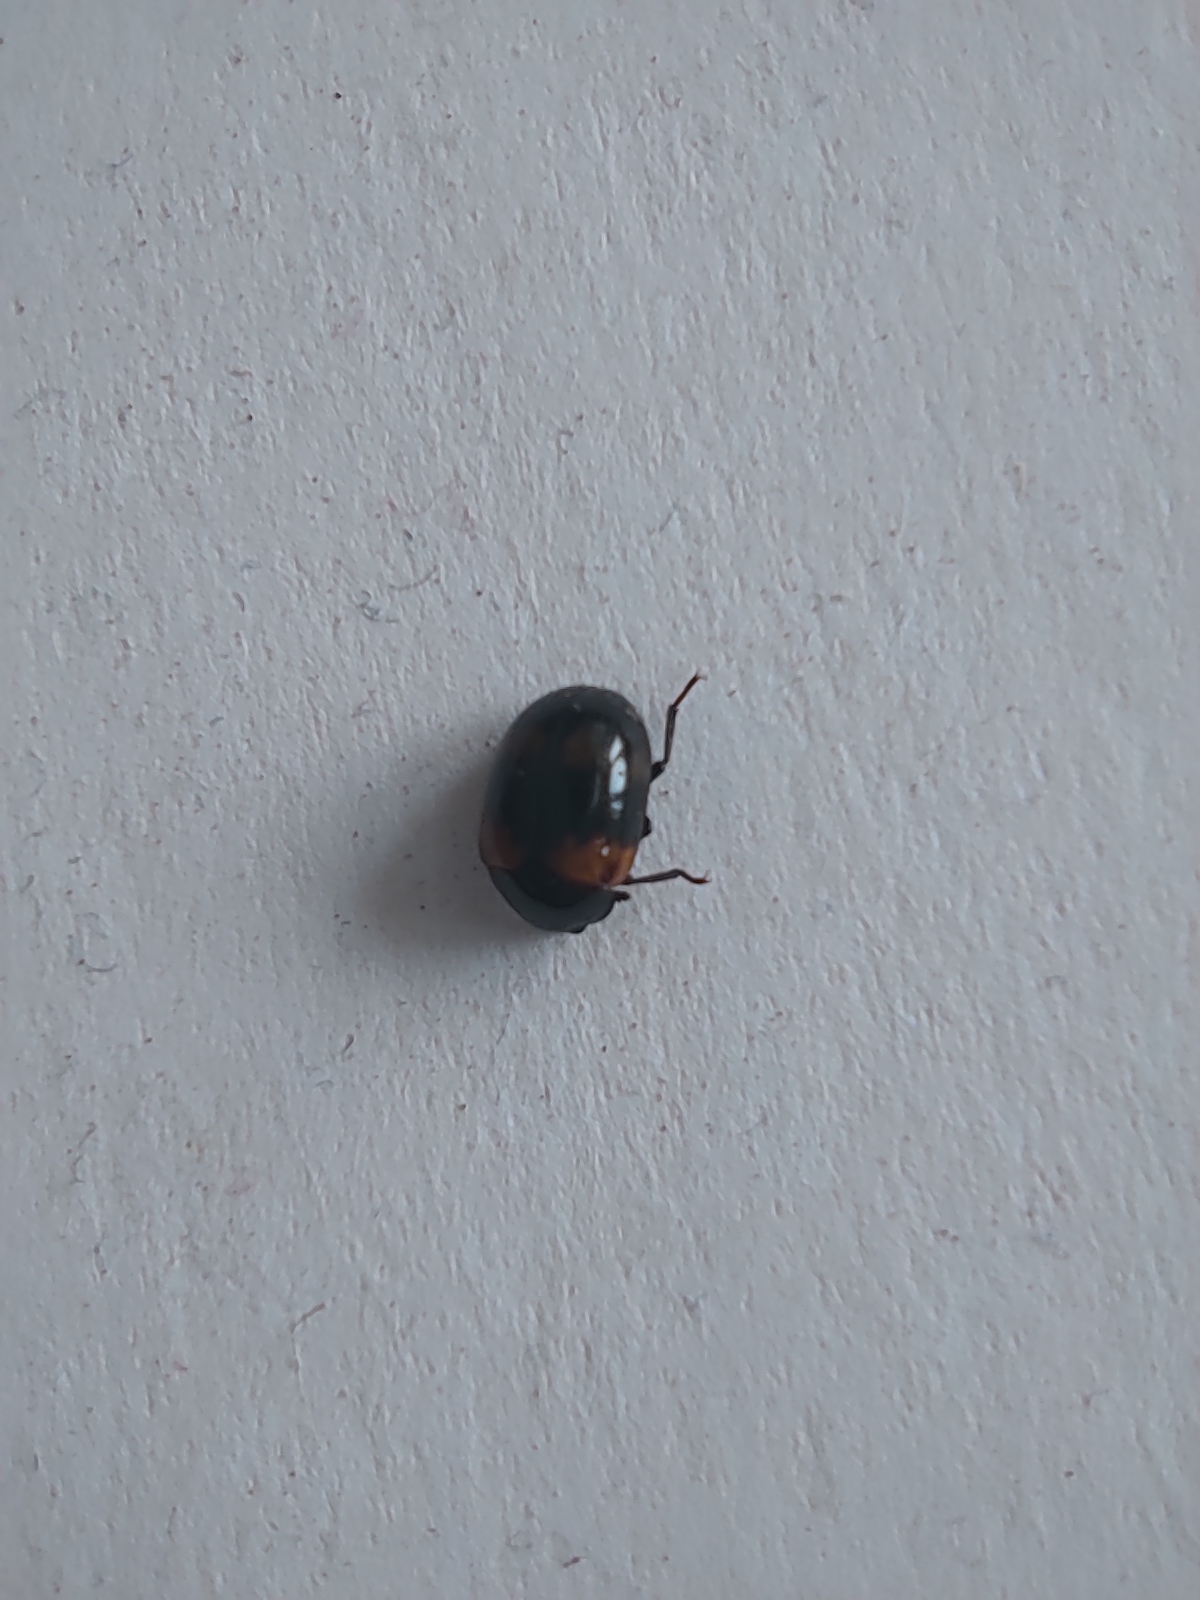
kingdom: Animalia
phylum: Arthropoda
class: Insecta
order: Coleoptera
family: Tenebrionidae
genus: Diaperis
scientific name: Diaperis boleti
